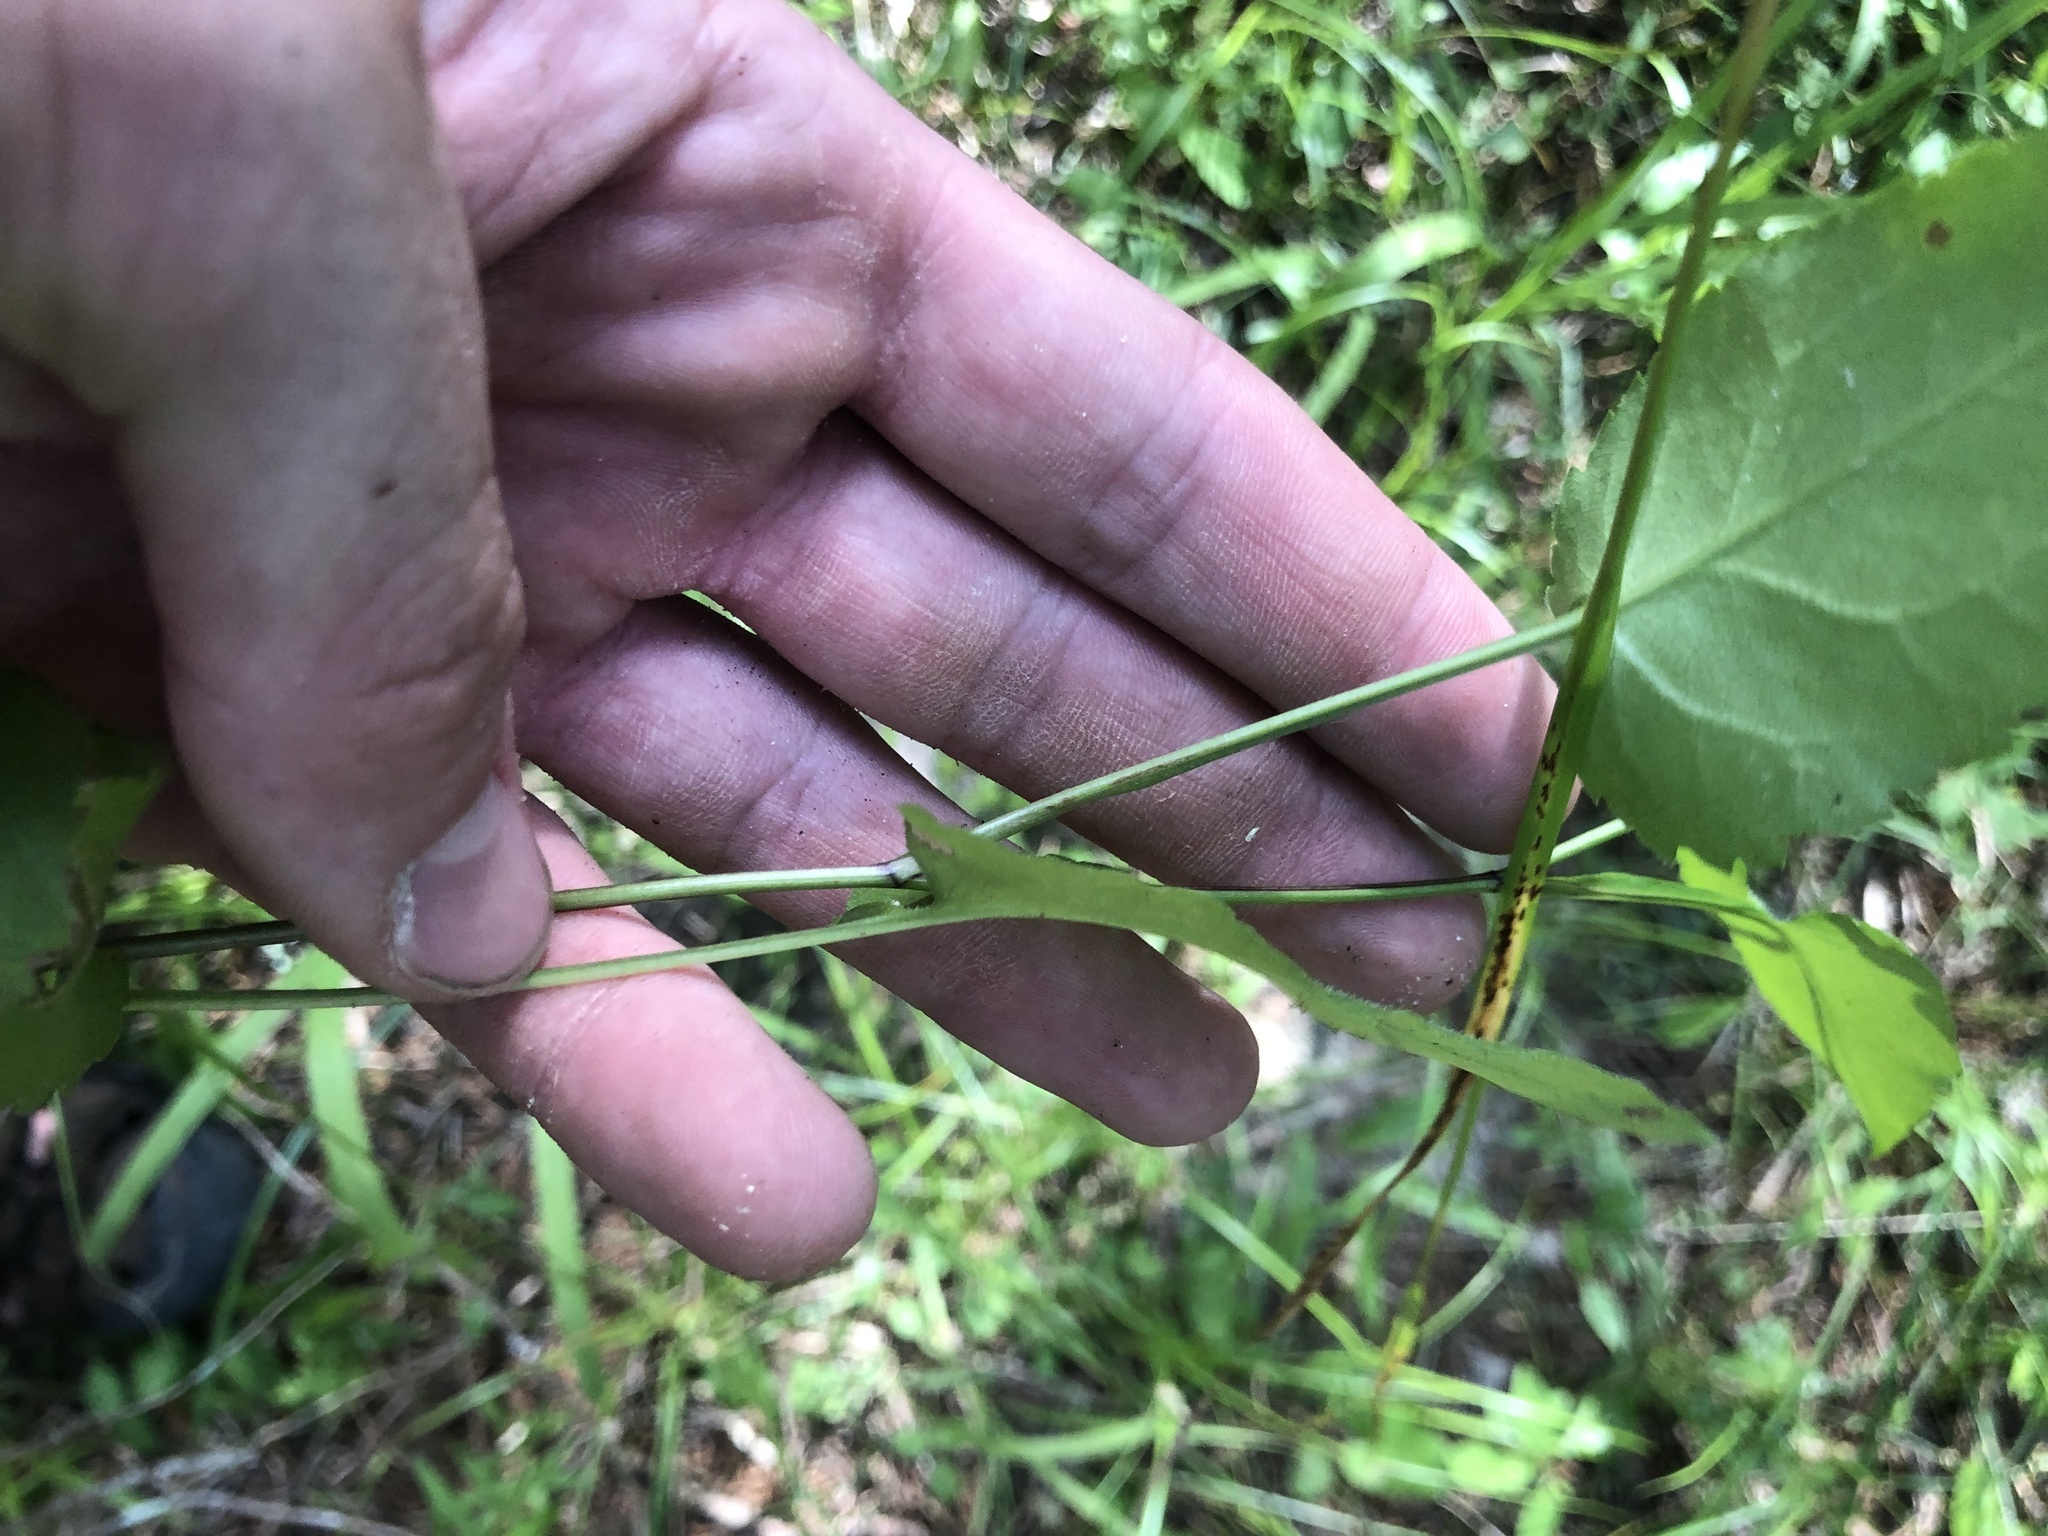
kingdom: Plantae
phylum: Tracheophyta
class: Magnoliopsida
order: Asterales
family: Asteraceae
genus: Symphyotrichum
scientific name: Symphyotrichum drummondii
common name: Drummond's aster
